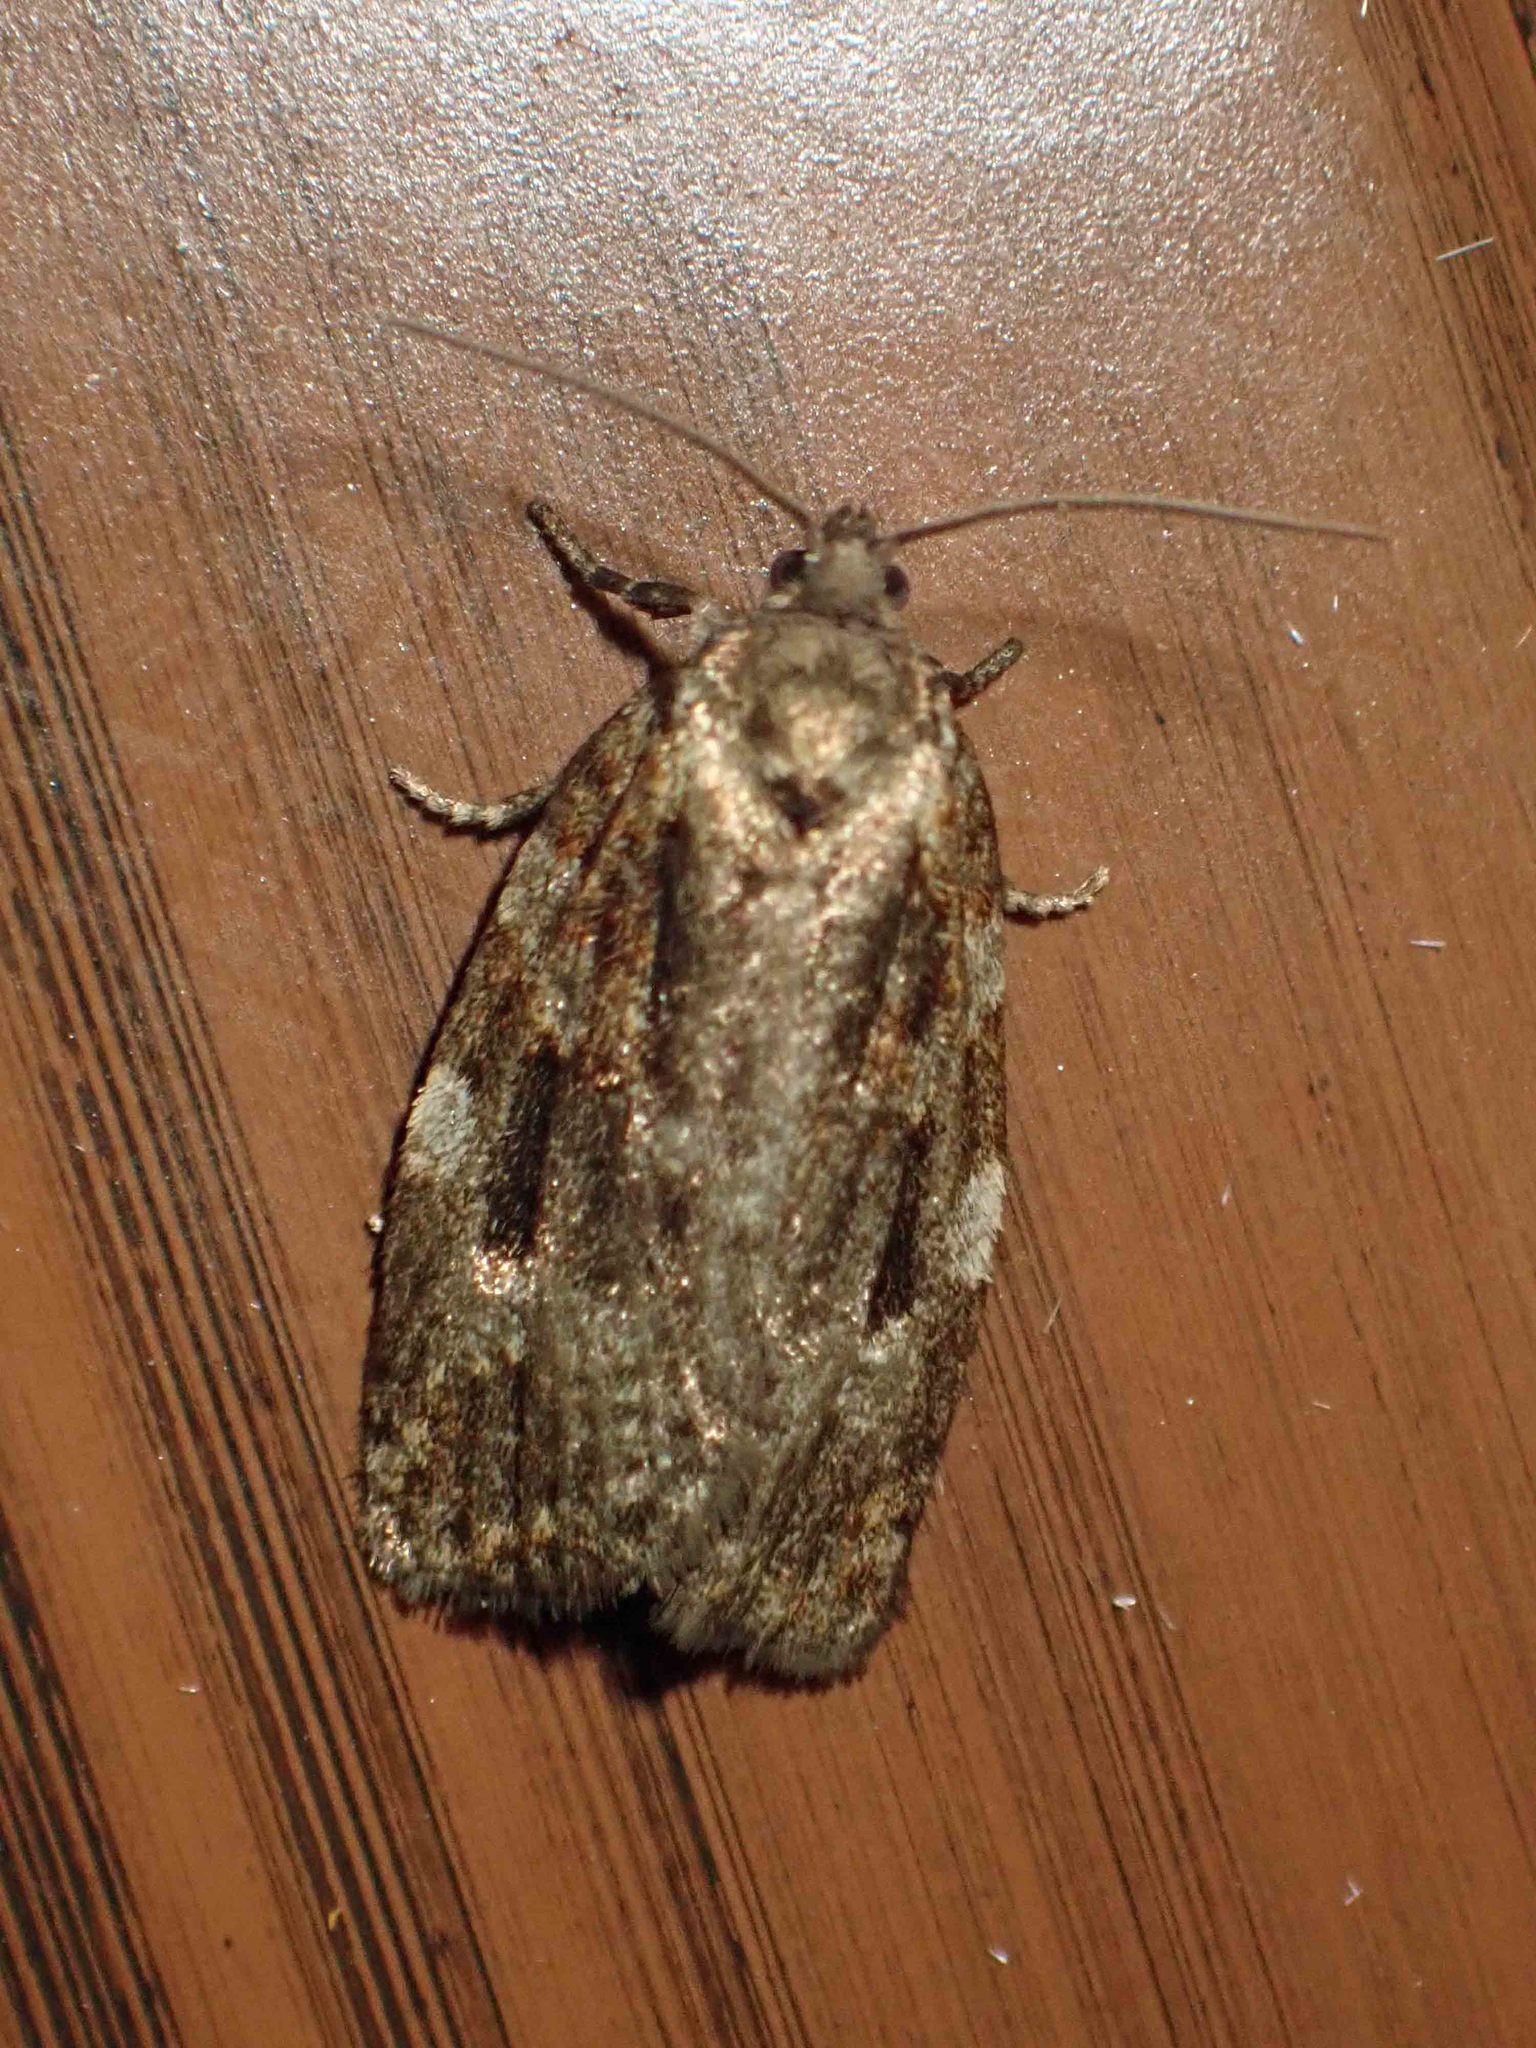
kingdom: Animalia
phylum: Arthropoda
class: Insecta
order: Lepidoptera
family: Tortricidae
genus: Choristoneura
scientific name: Choristoneura fumiferana
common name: Spruce budworm
